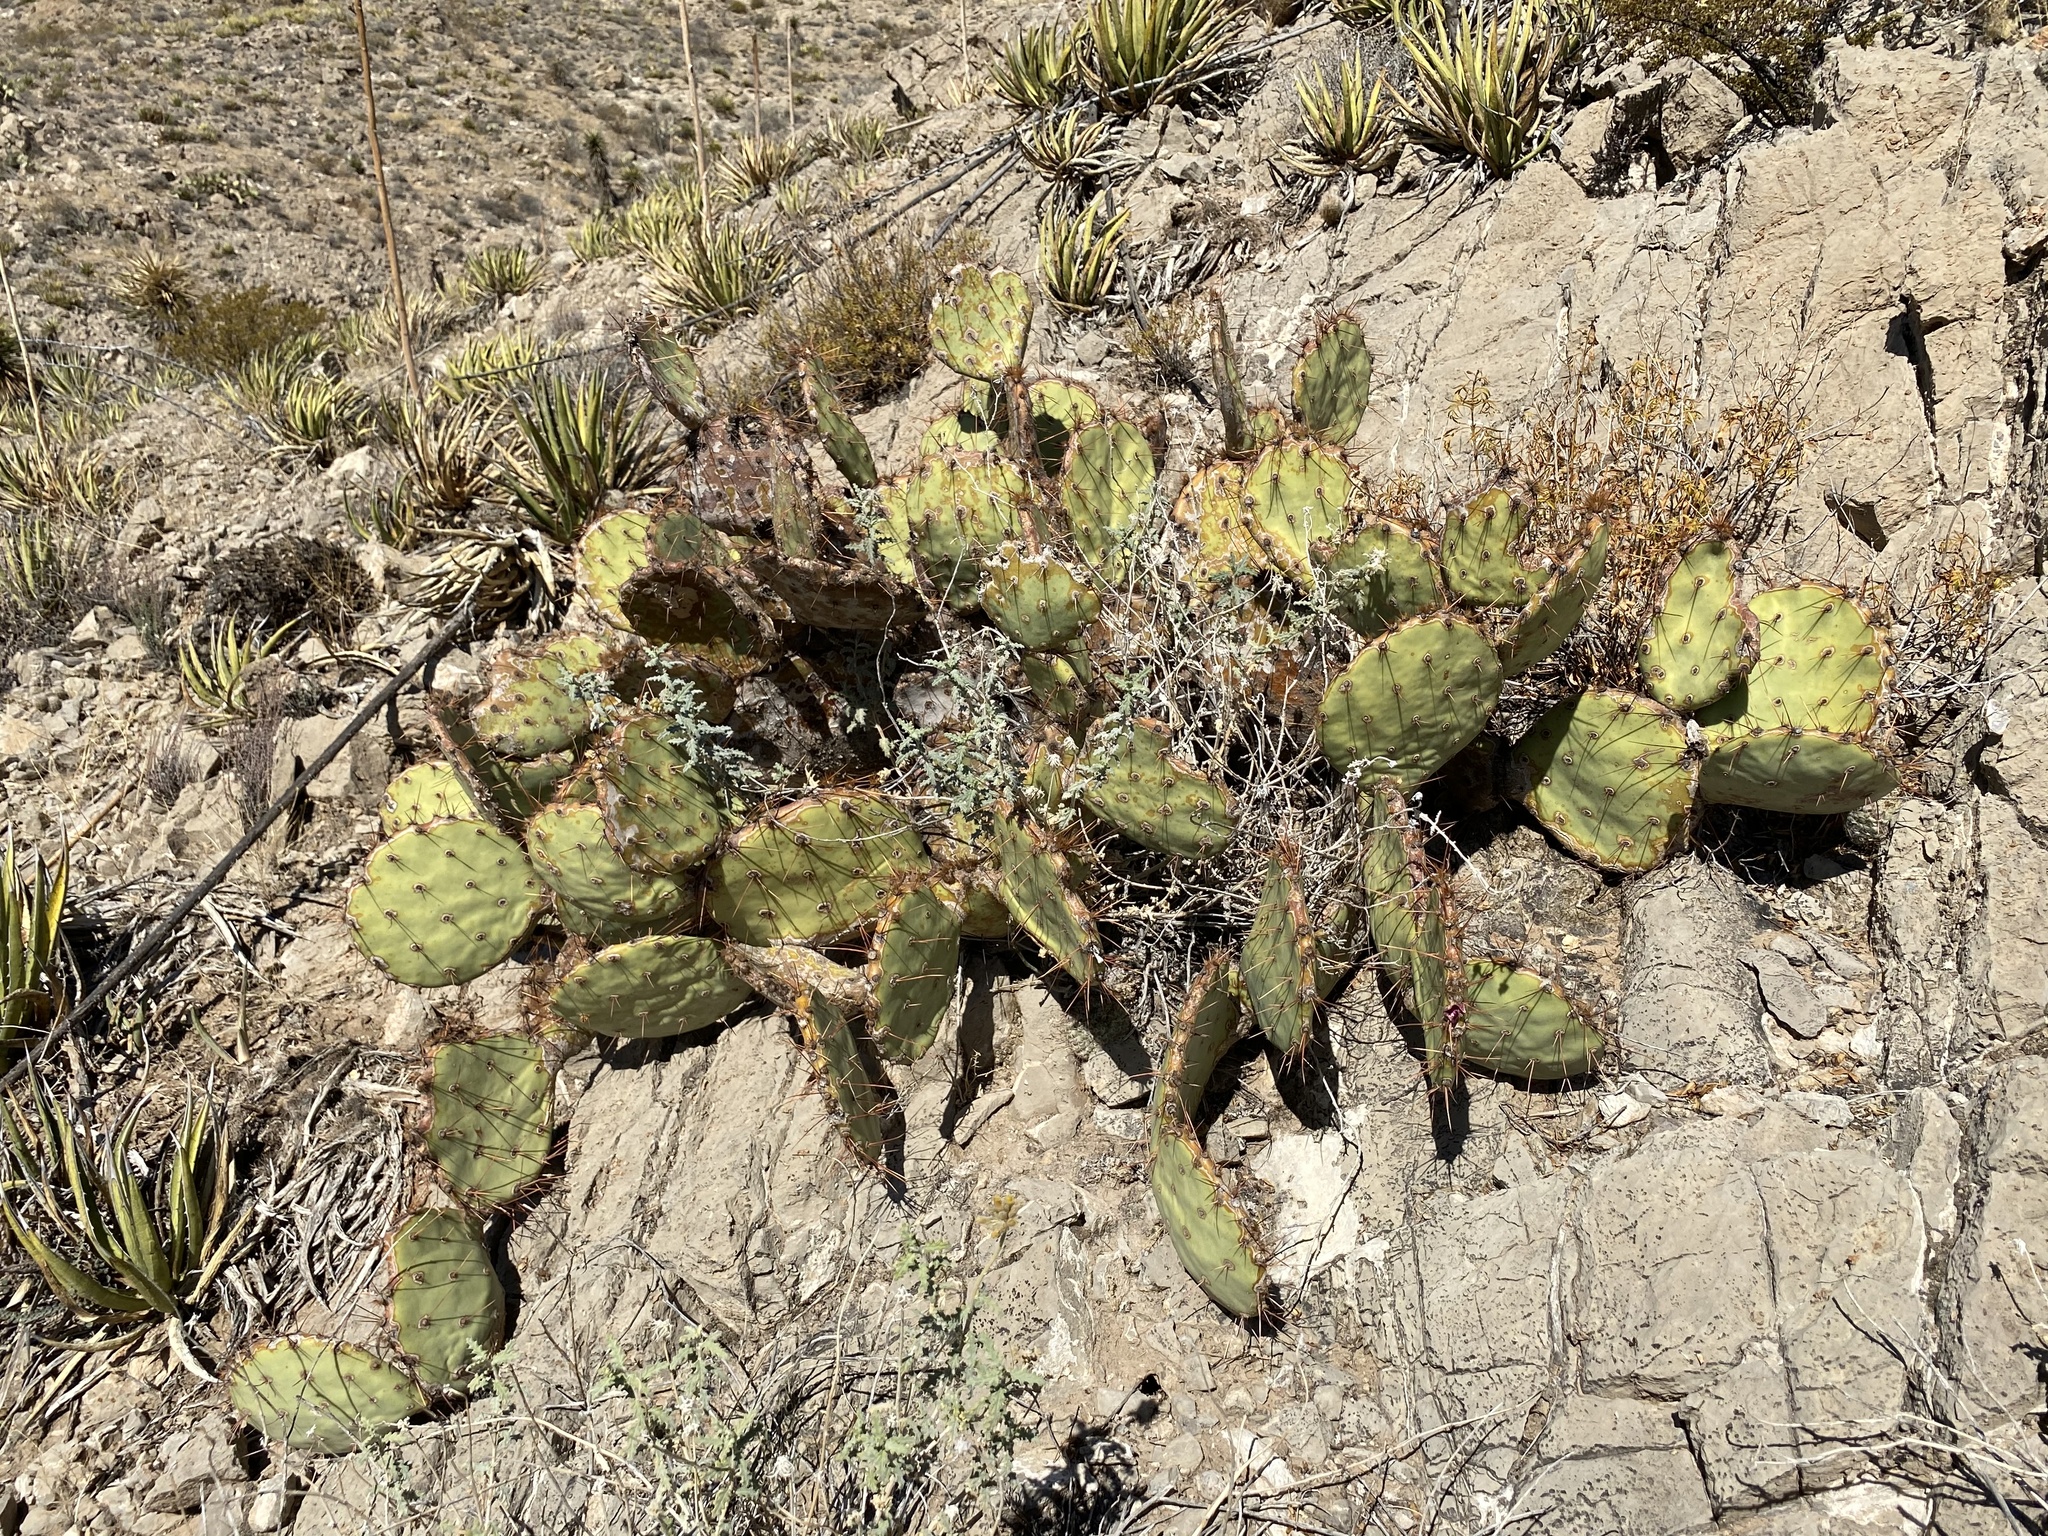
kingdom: Plantae
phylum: Tracheophyta
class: Magnoliopsida
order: Caryophyllales
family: Cactaceae
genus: Opuntia
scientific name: Opuntia engelmannii
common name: Cactus-apple
